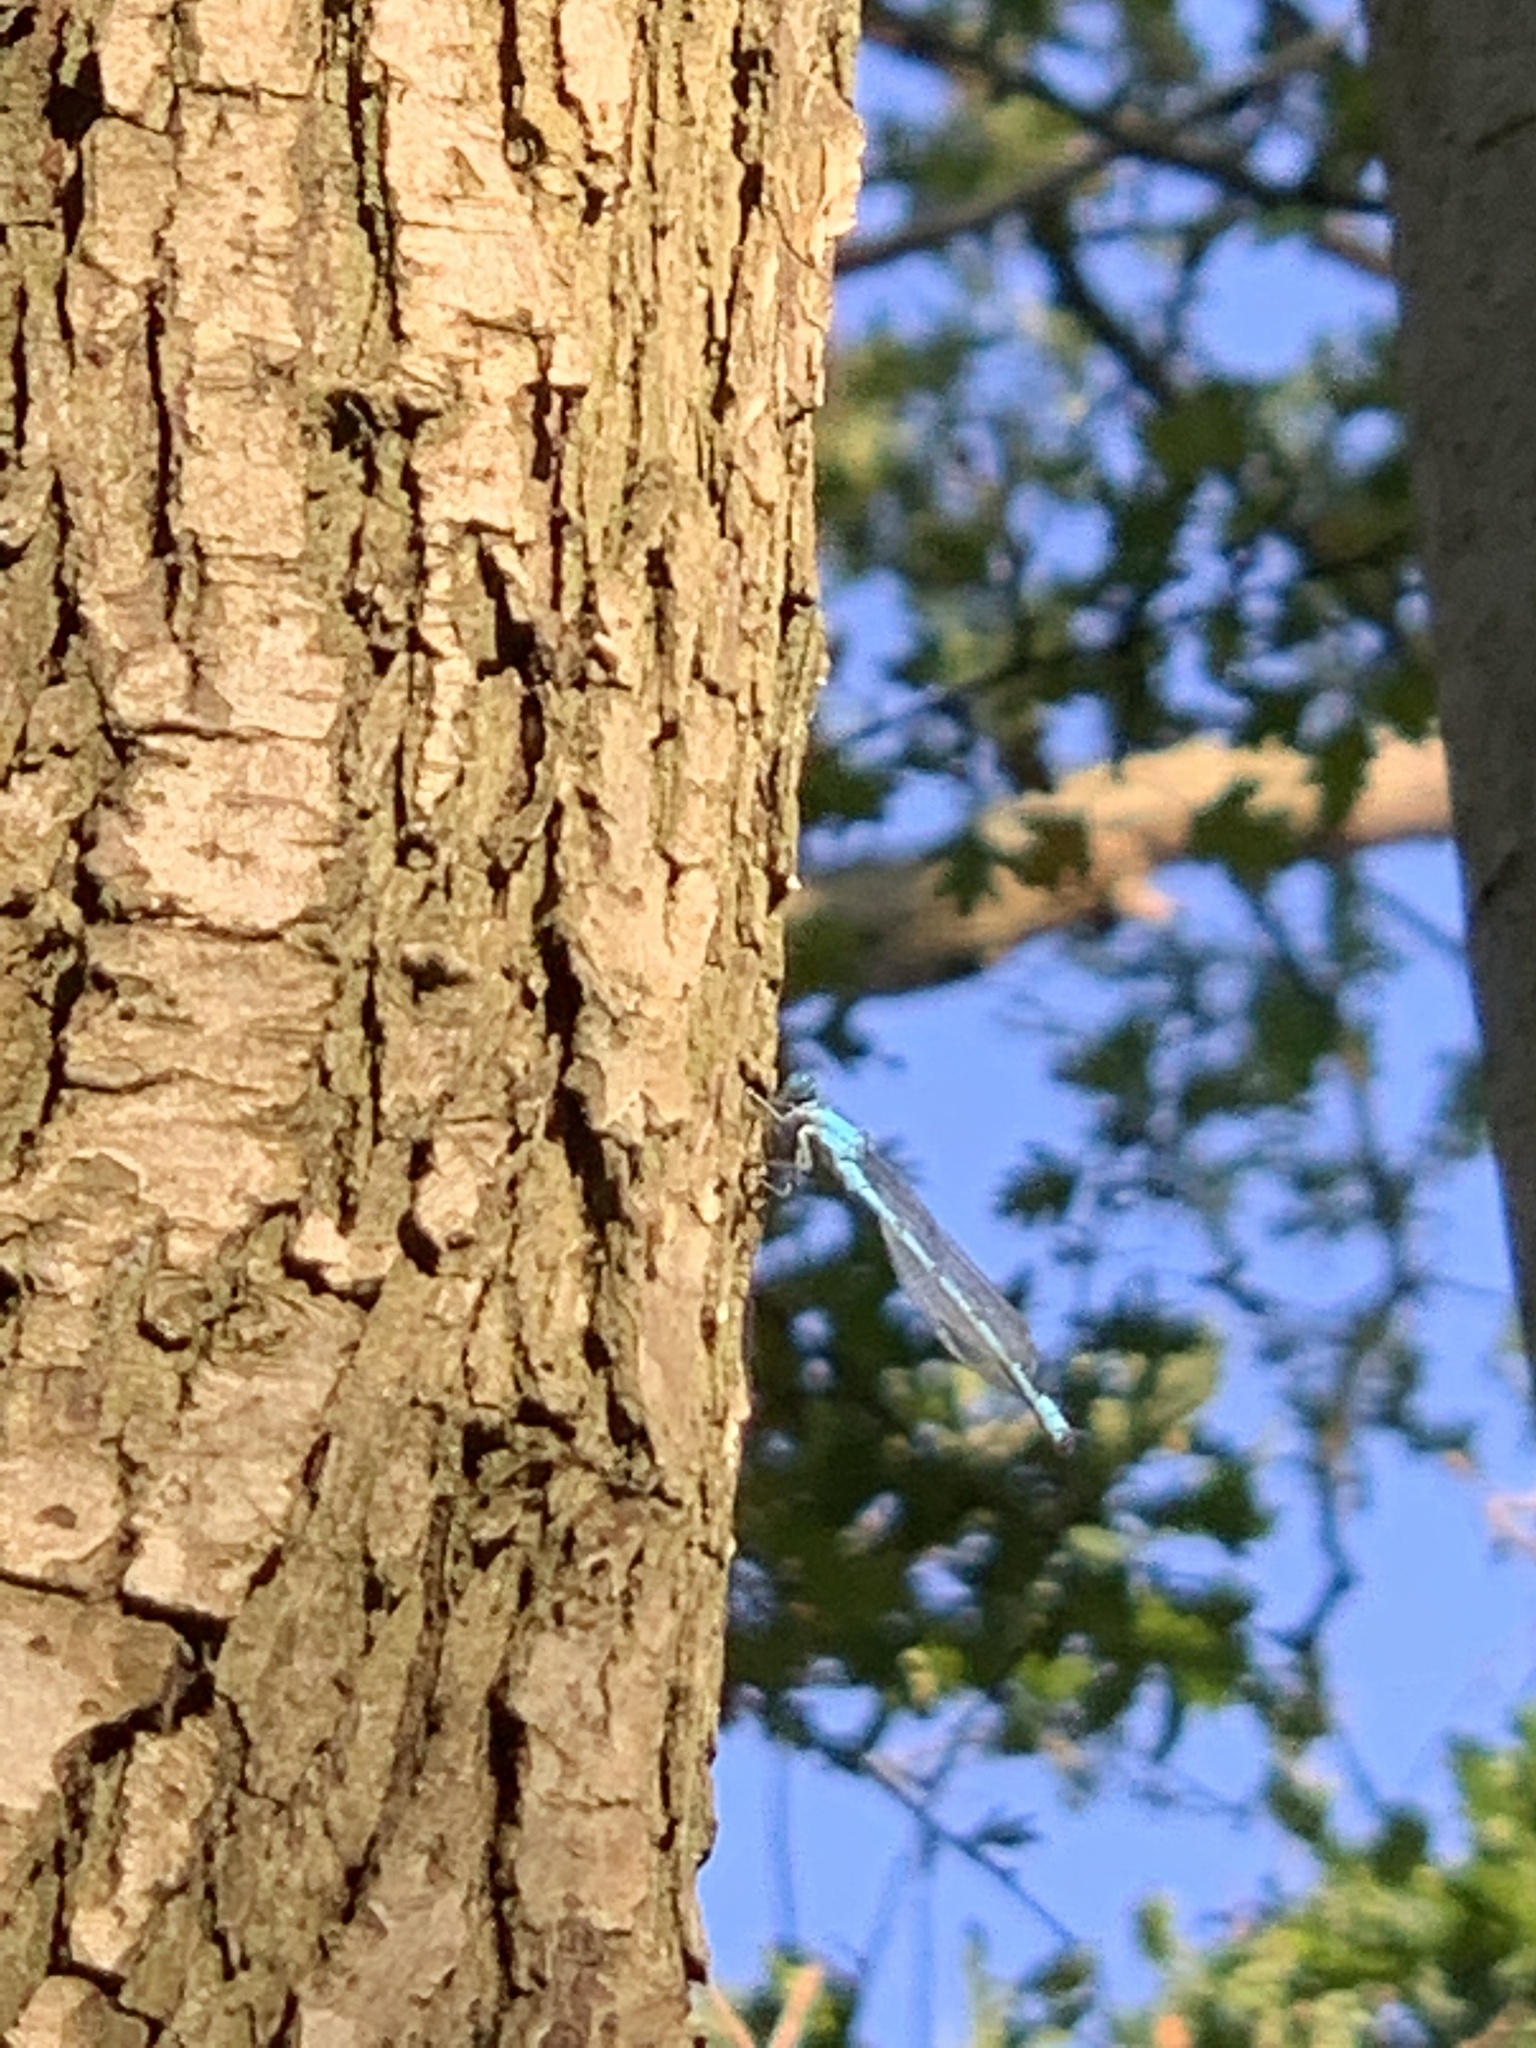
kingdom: Animalia
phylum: Arthropoda
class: Insecta
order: Odonata
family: Coenagrionidae
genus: Enallagma
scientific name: Enallagma cyathigerum
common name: Common blue damselfly
